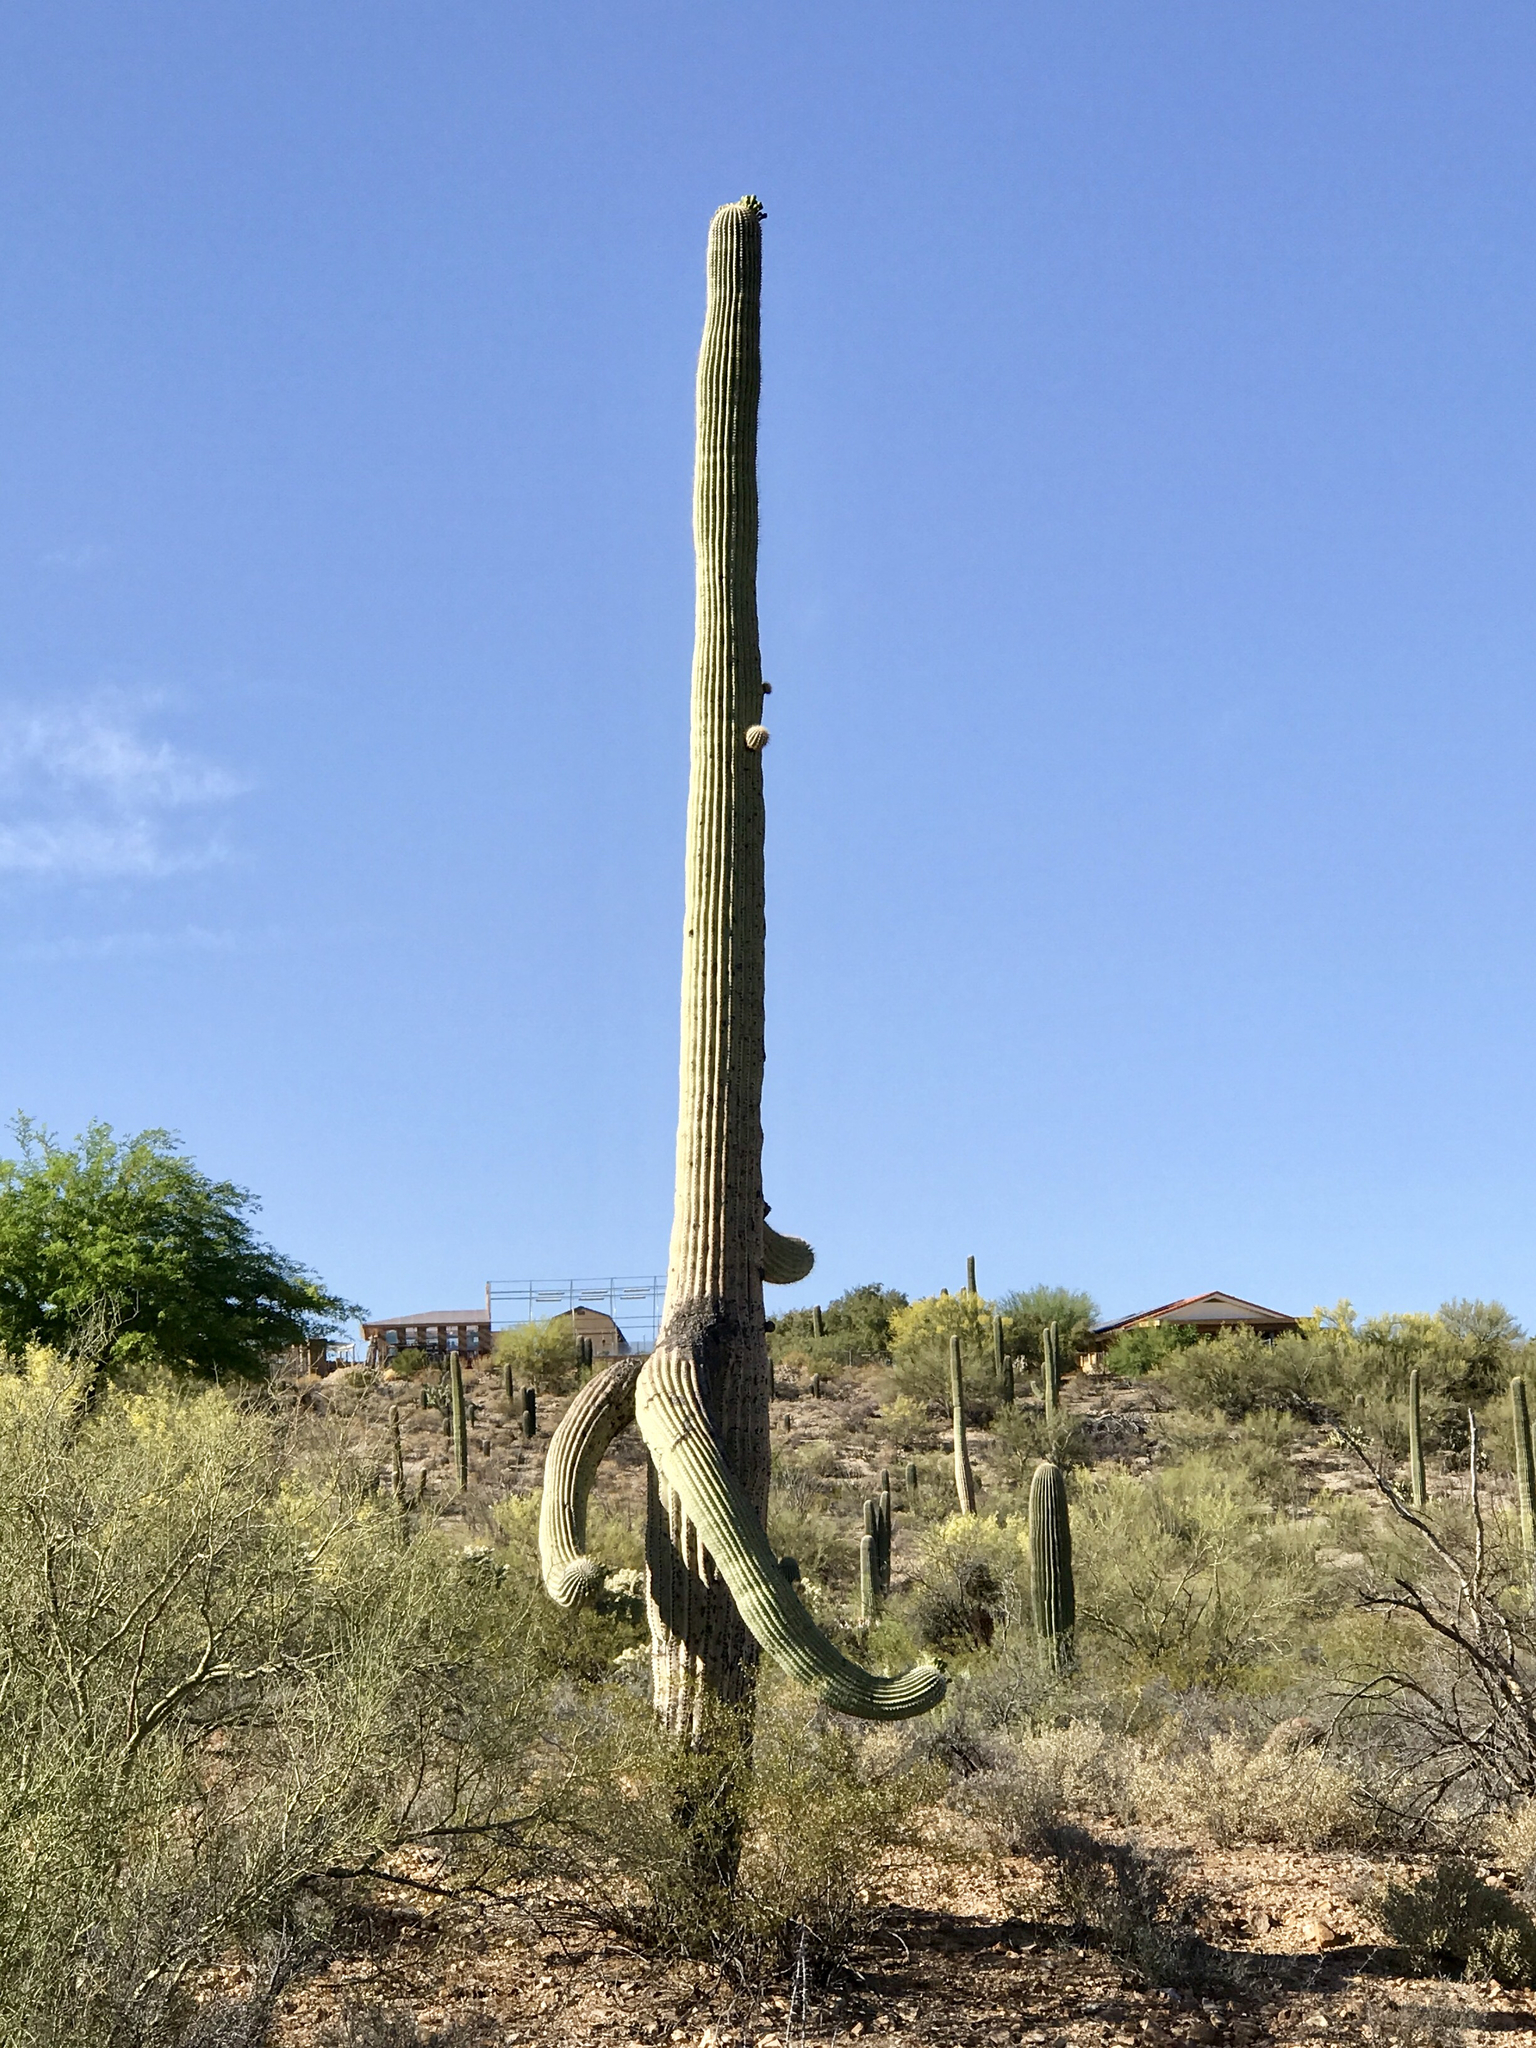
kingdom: Plantae
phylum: Tracheophyta
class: Magnoliopsida
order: Caryophyllales
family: Cactaceae
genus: Carnegiea
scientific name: Carnegiea gigantea
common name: Saguaro
